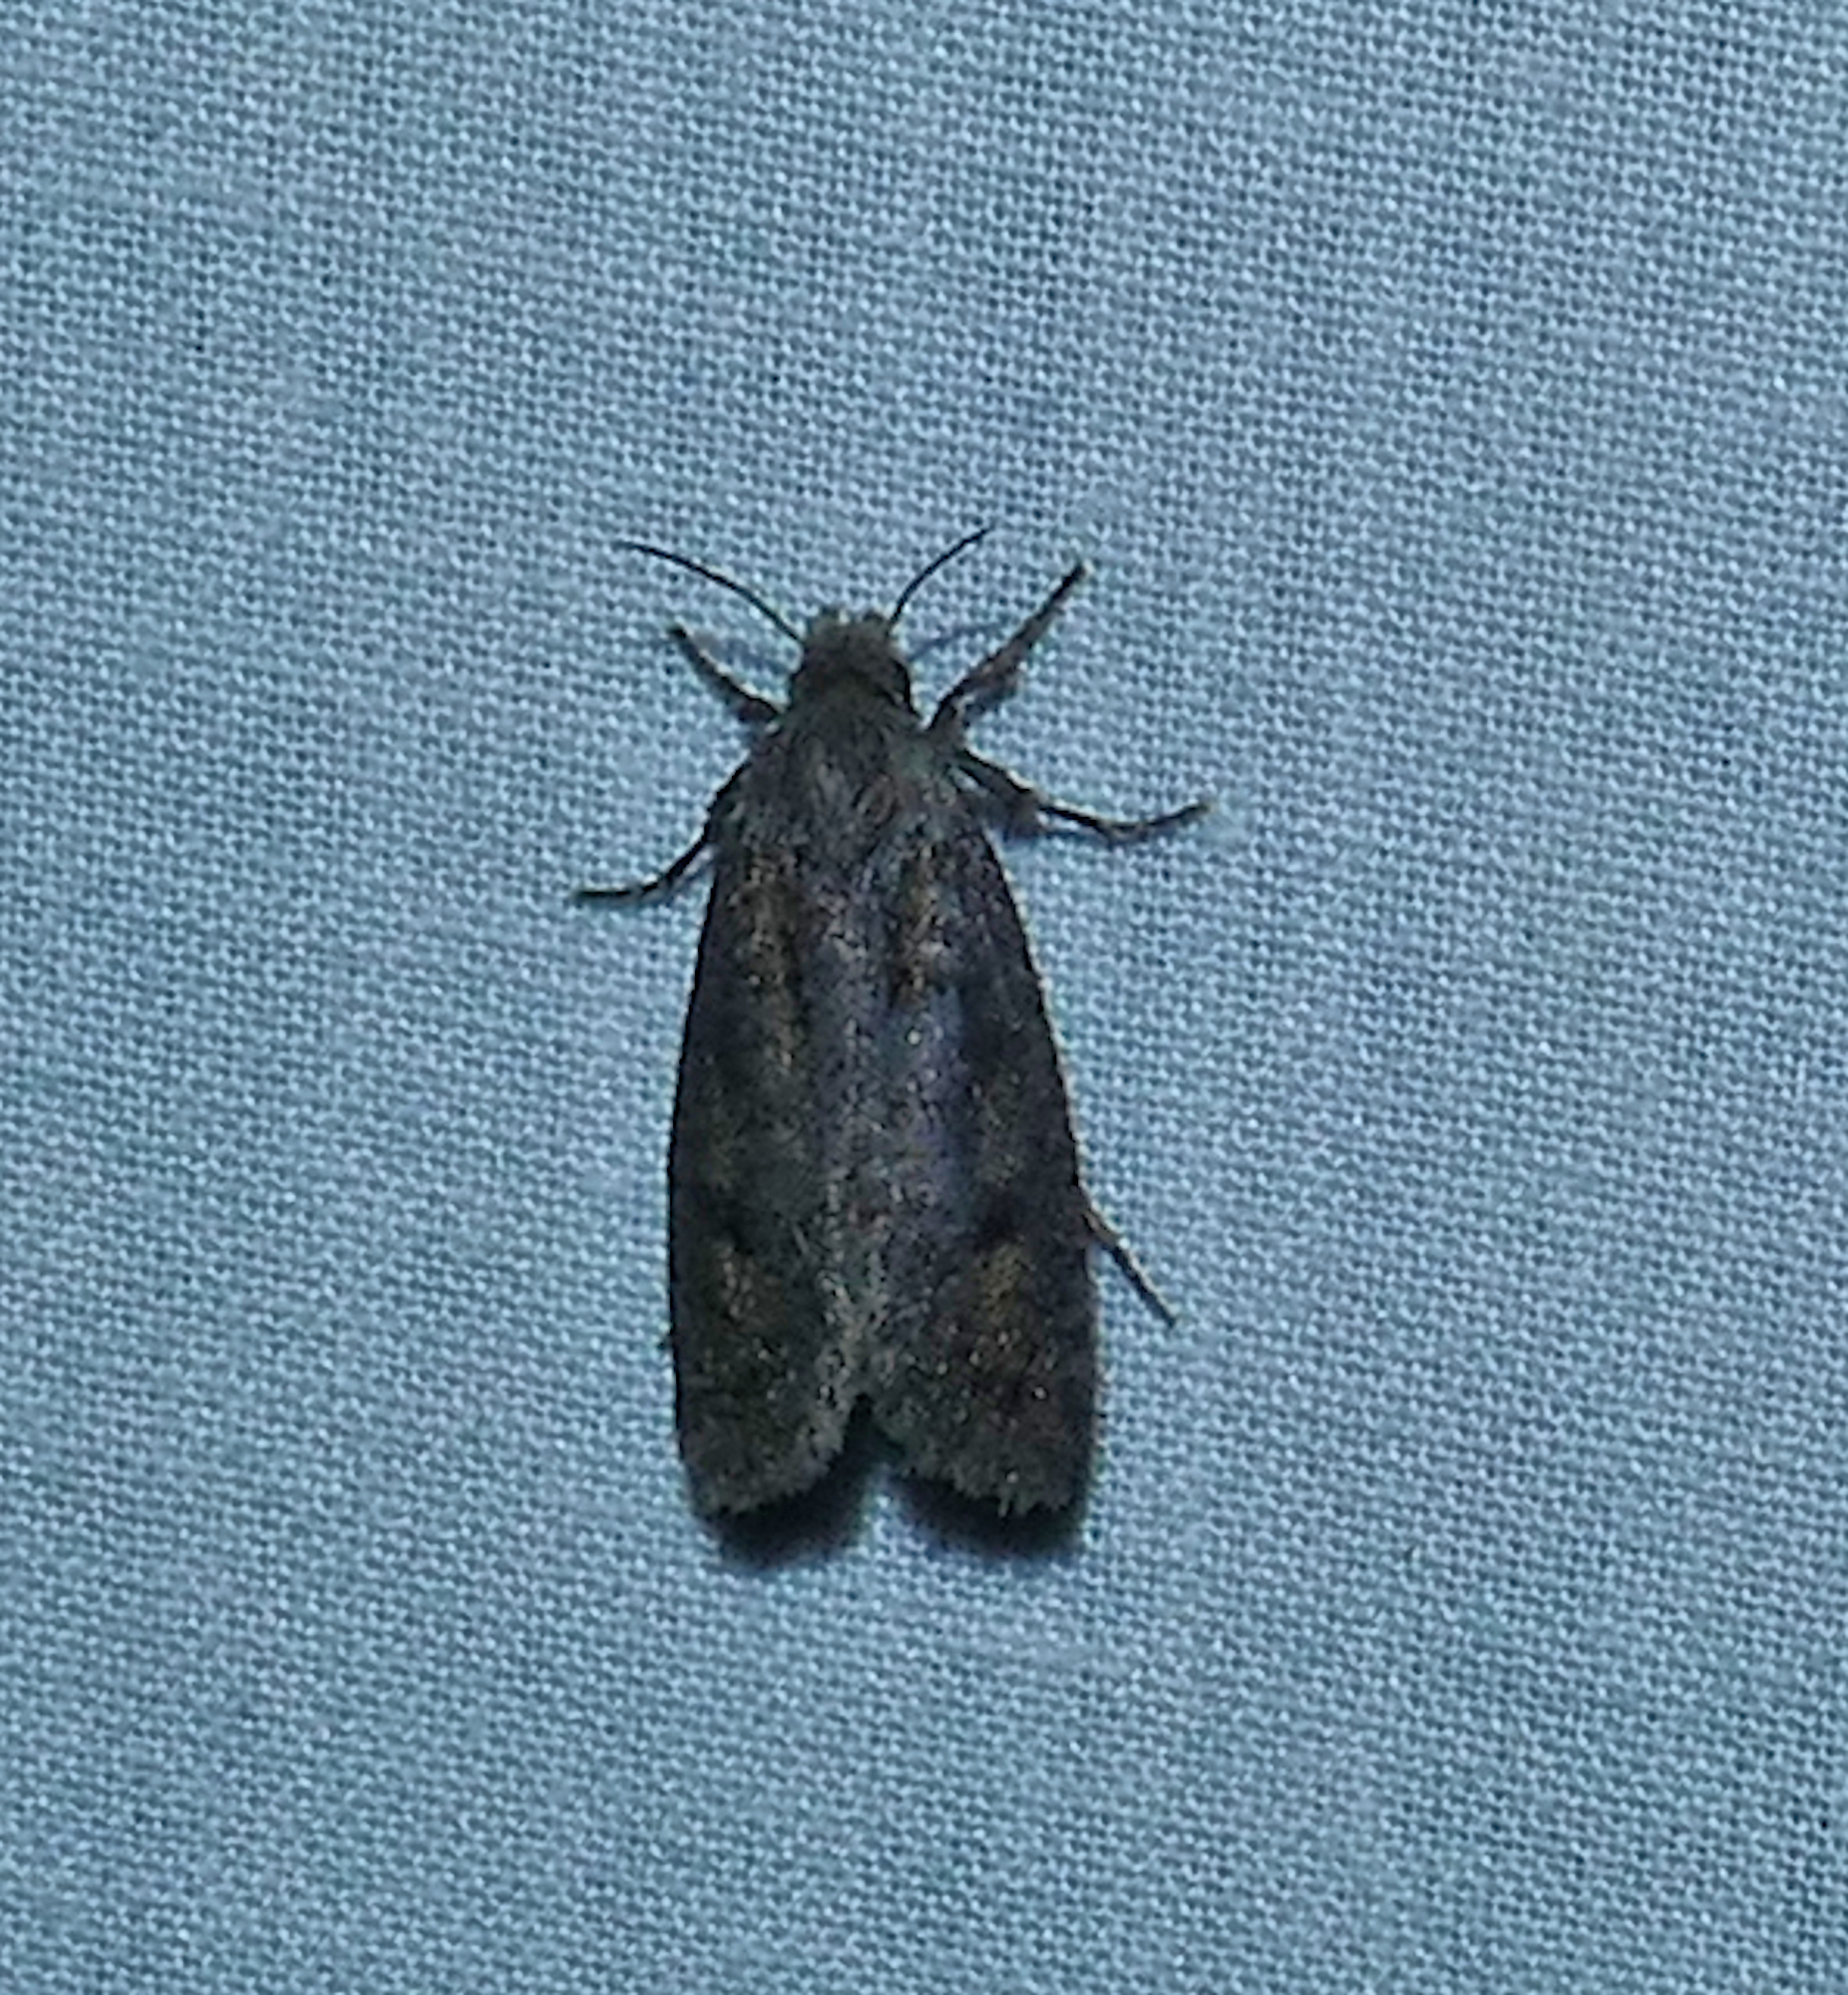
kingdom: Animalia
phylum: Arthropoda
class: Insecta
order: Lepidoptera
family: Tineidae
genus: Acrolophus
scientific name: Acrolophus popeanella
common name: Clemens' grass tubeworm moth
